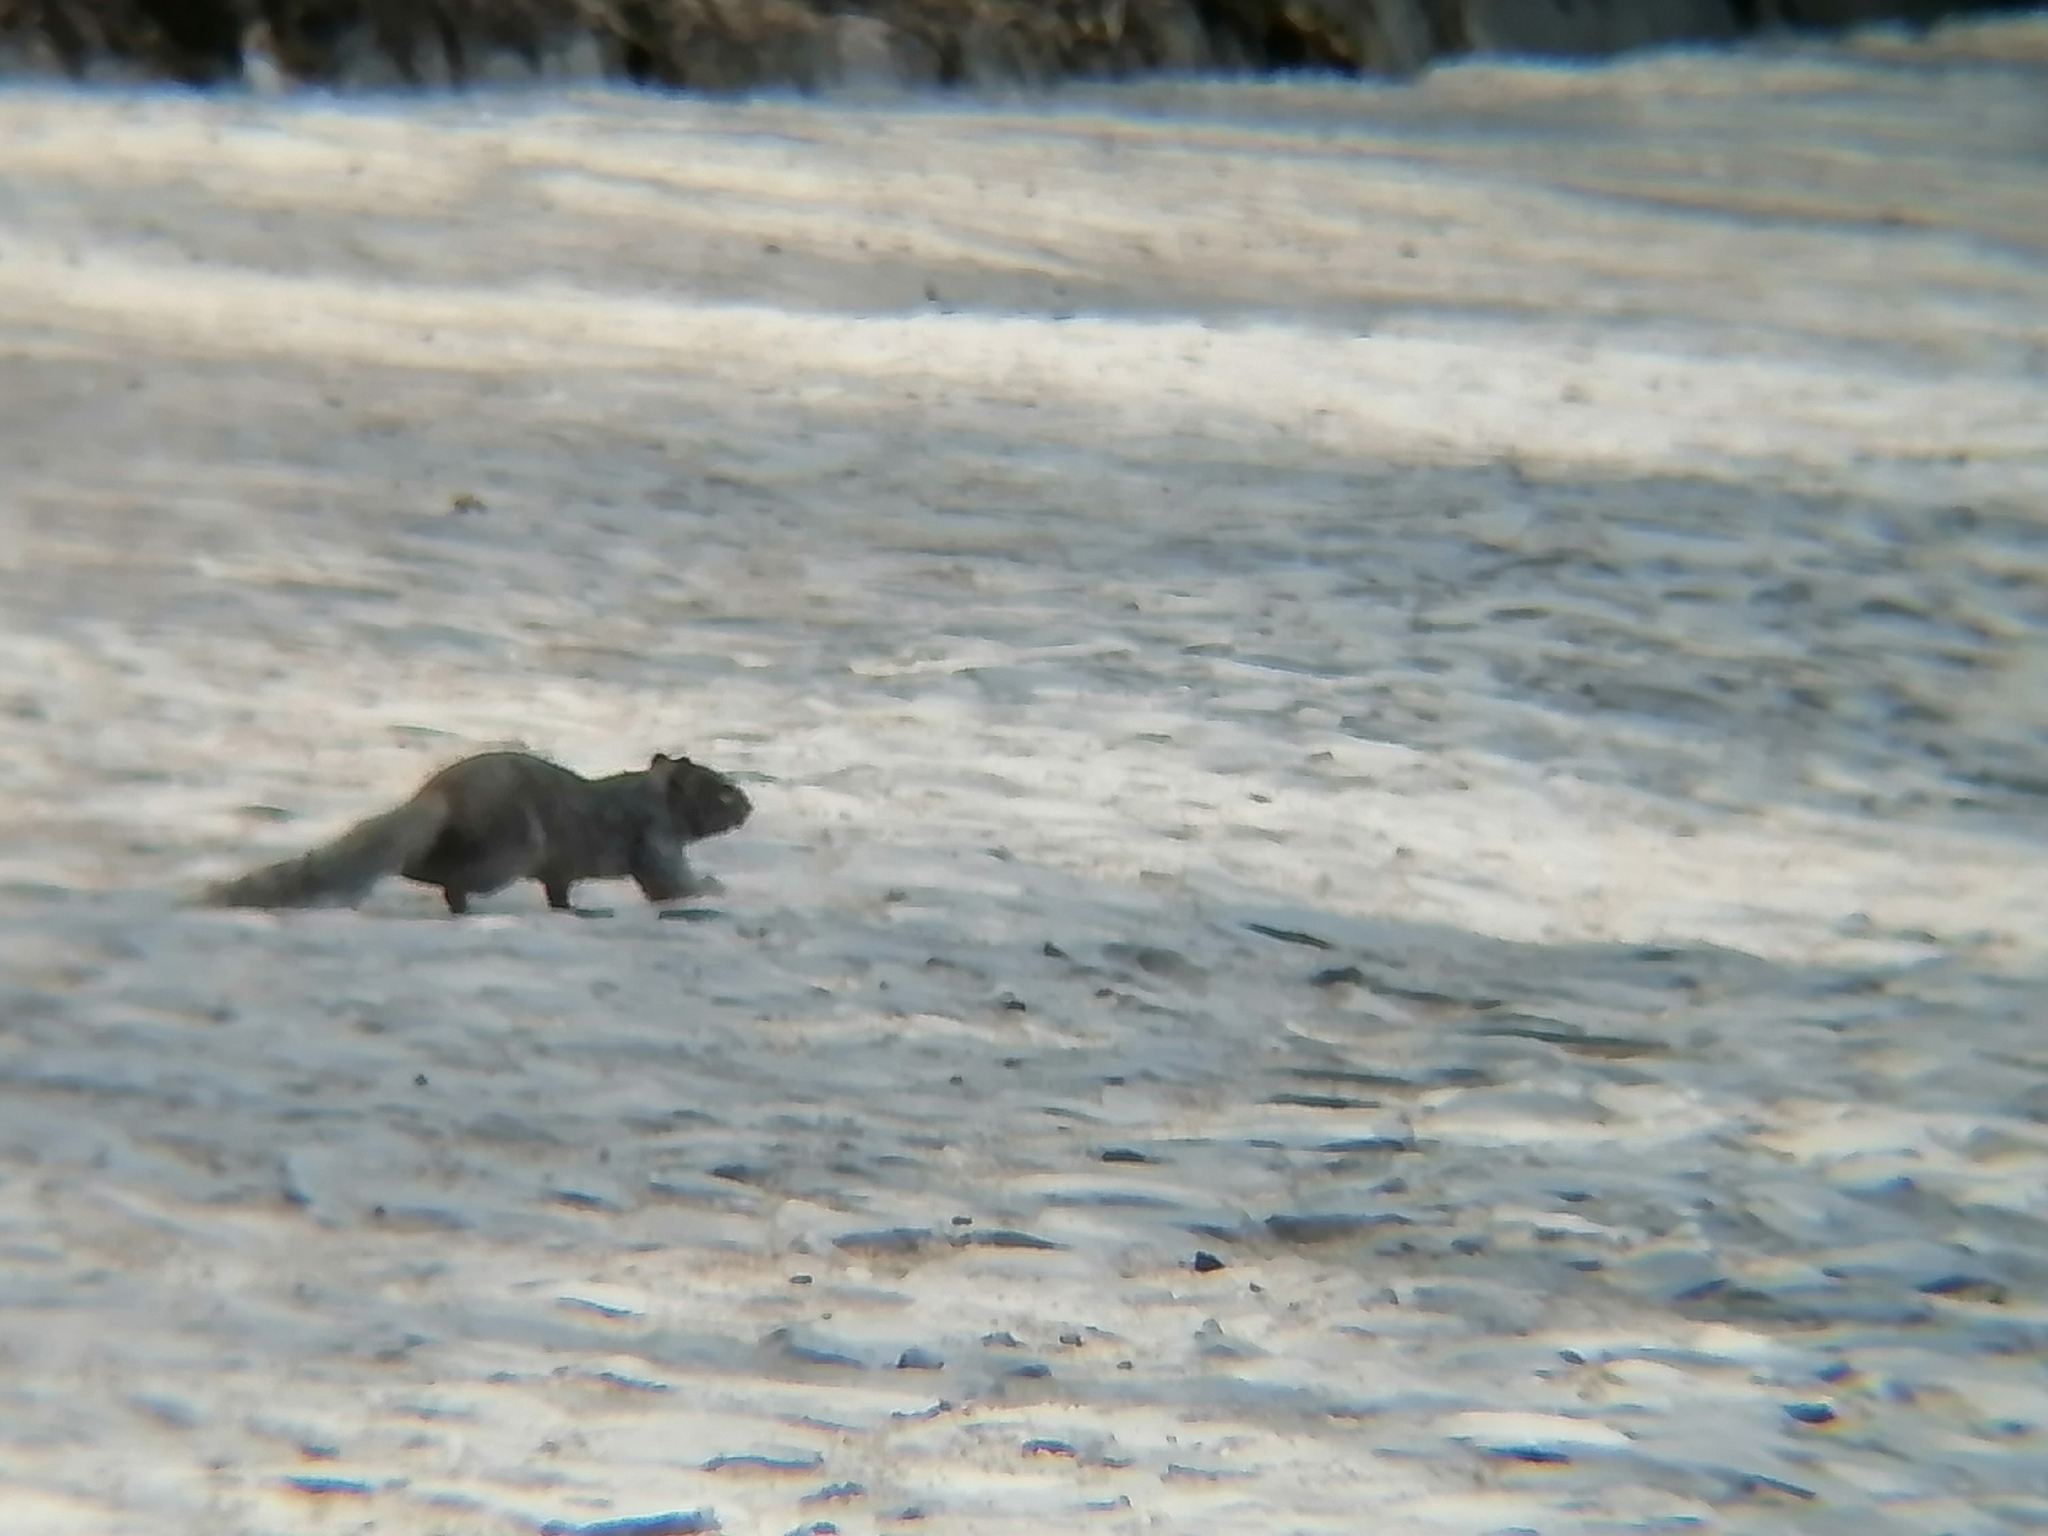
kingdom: Animalia
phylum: Chordata
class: Mammalia
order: Rodentia
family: Sciuridae
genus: Otospermophilus
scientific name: Otospermophilus variegatus
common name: Rock squirrel
